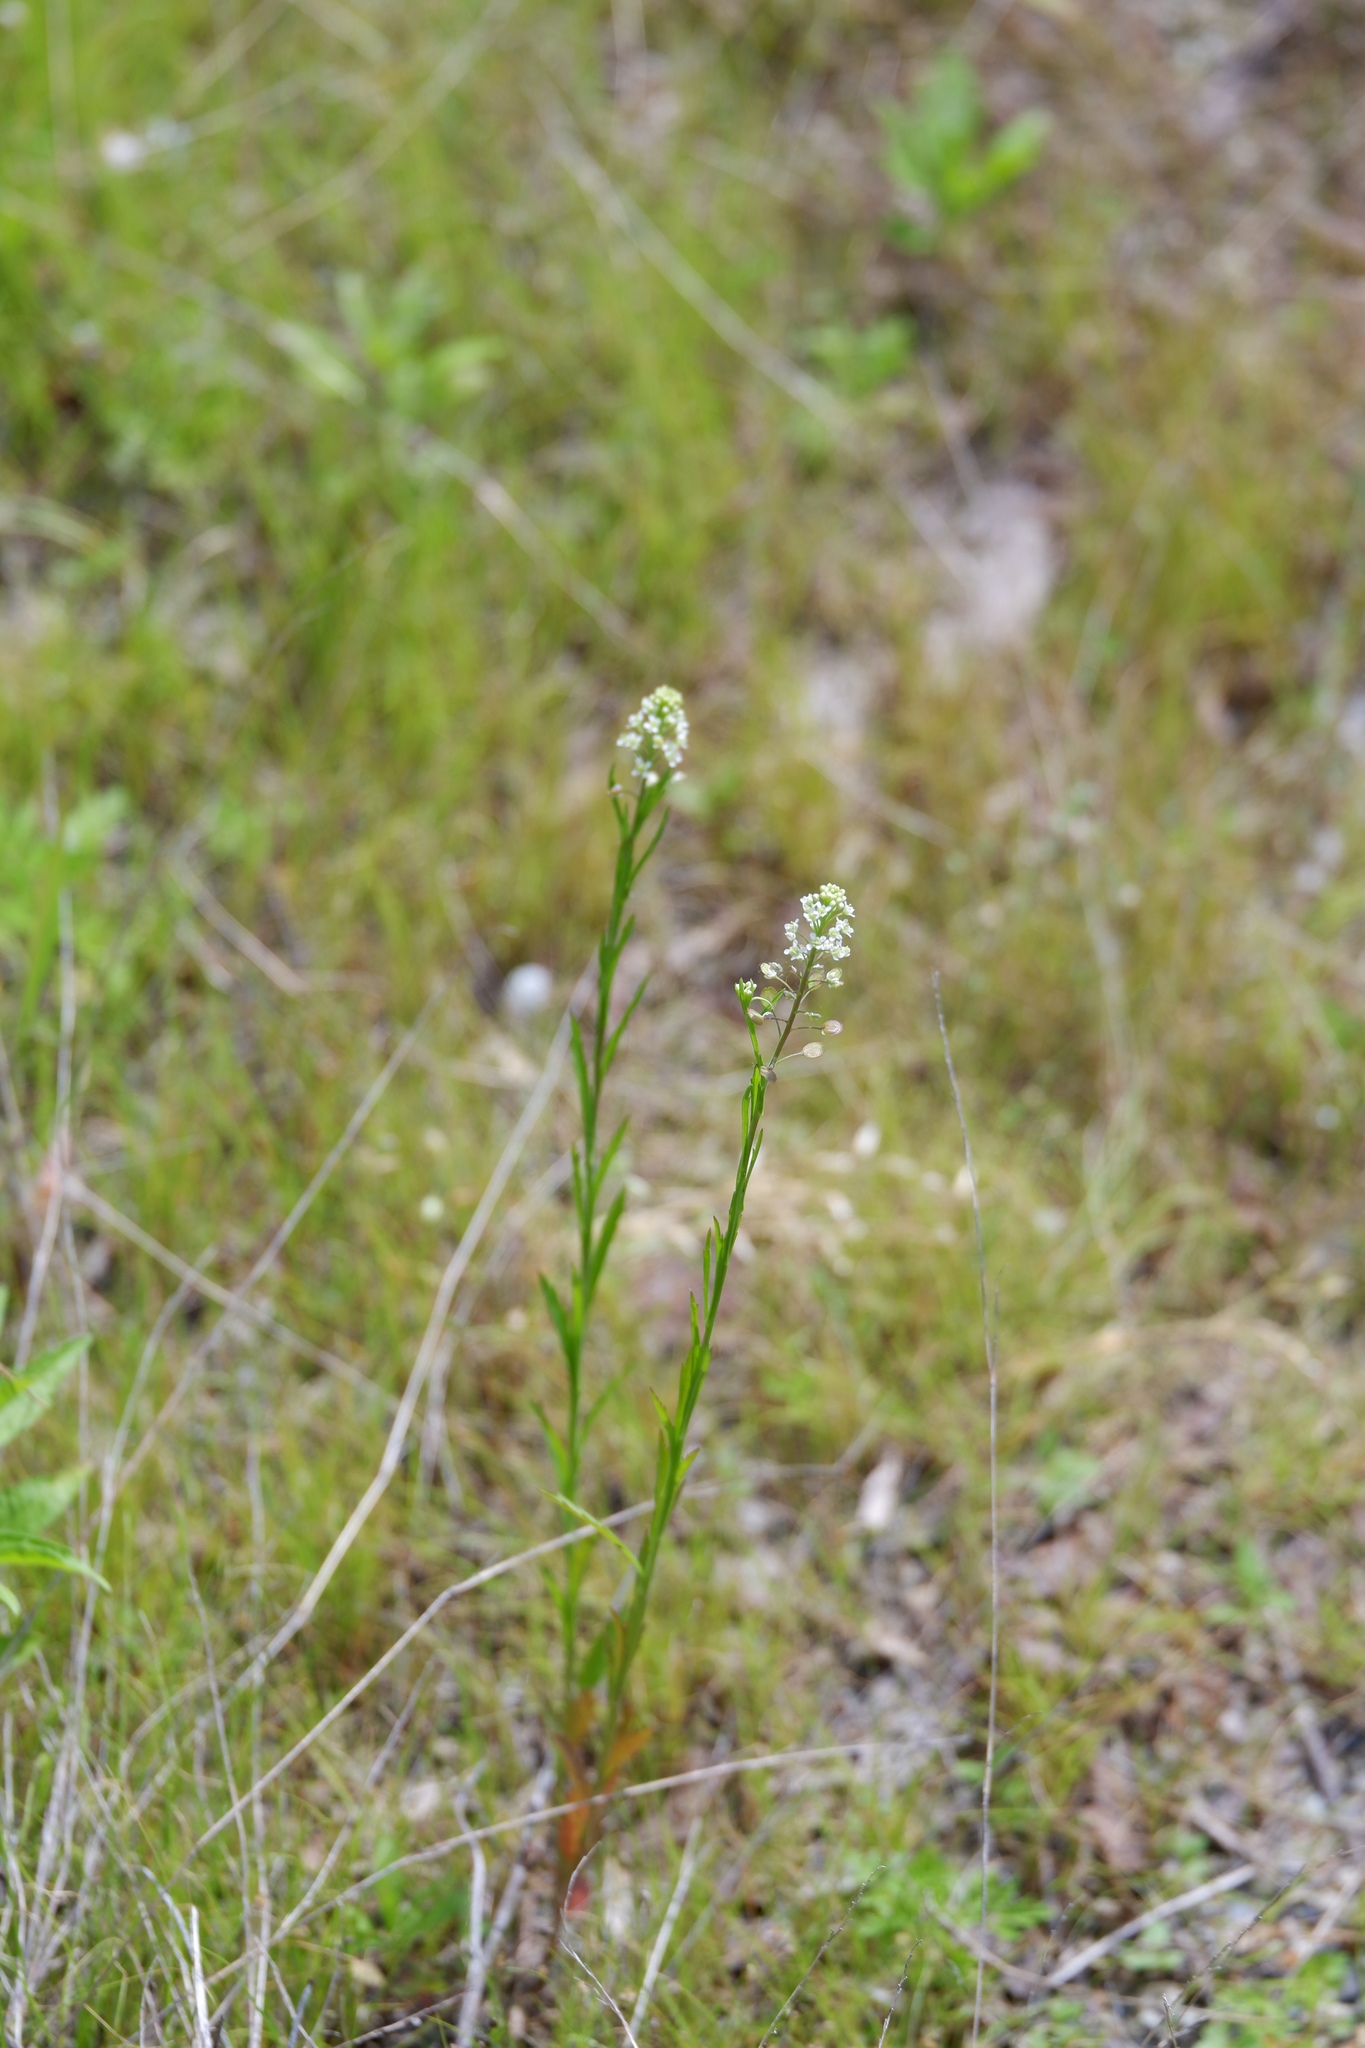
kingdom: Plantae
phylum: Tracheophyta
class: Magnoliopsida
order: Brassicales
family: Brassicaceae
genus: Lepidium
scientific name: Lepidium virginicum
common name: Least pepperwort
